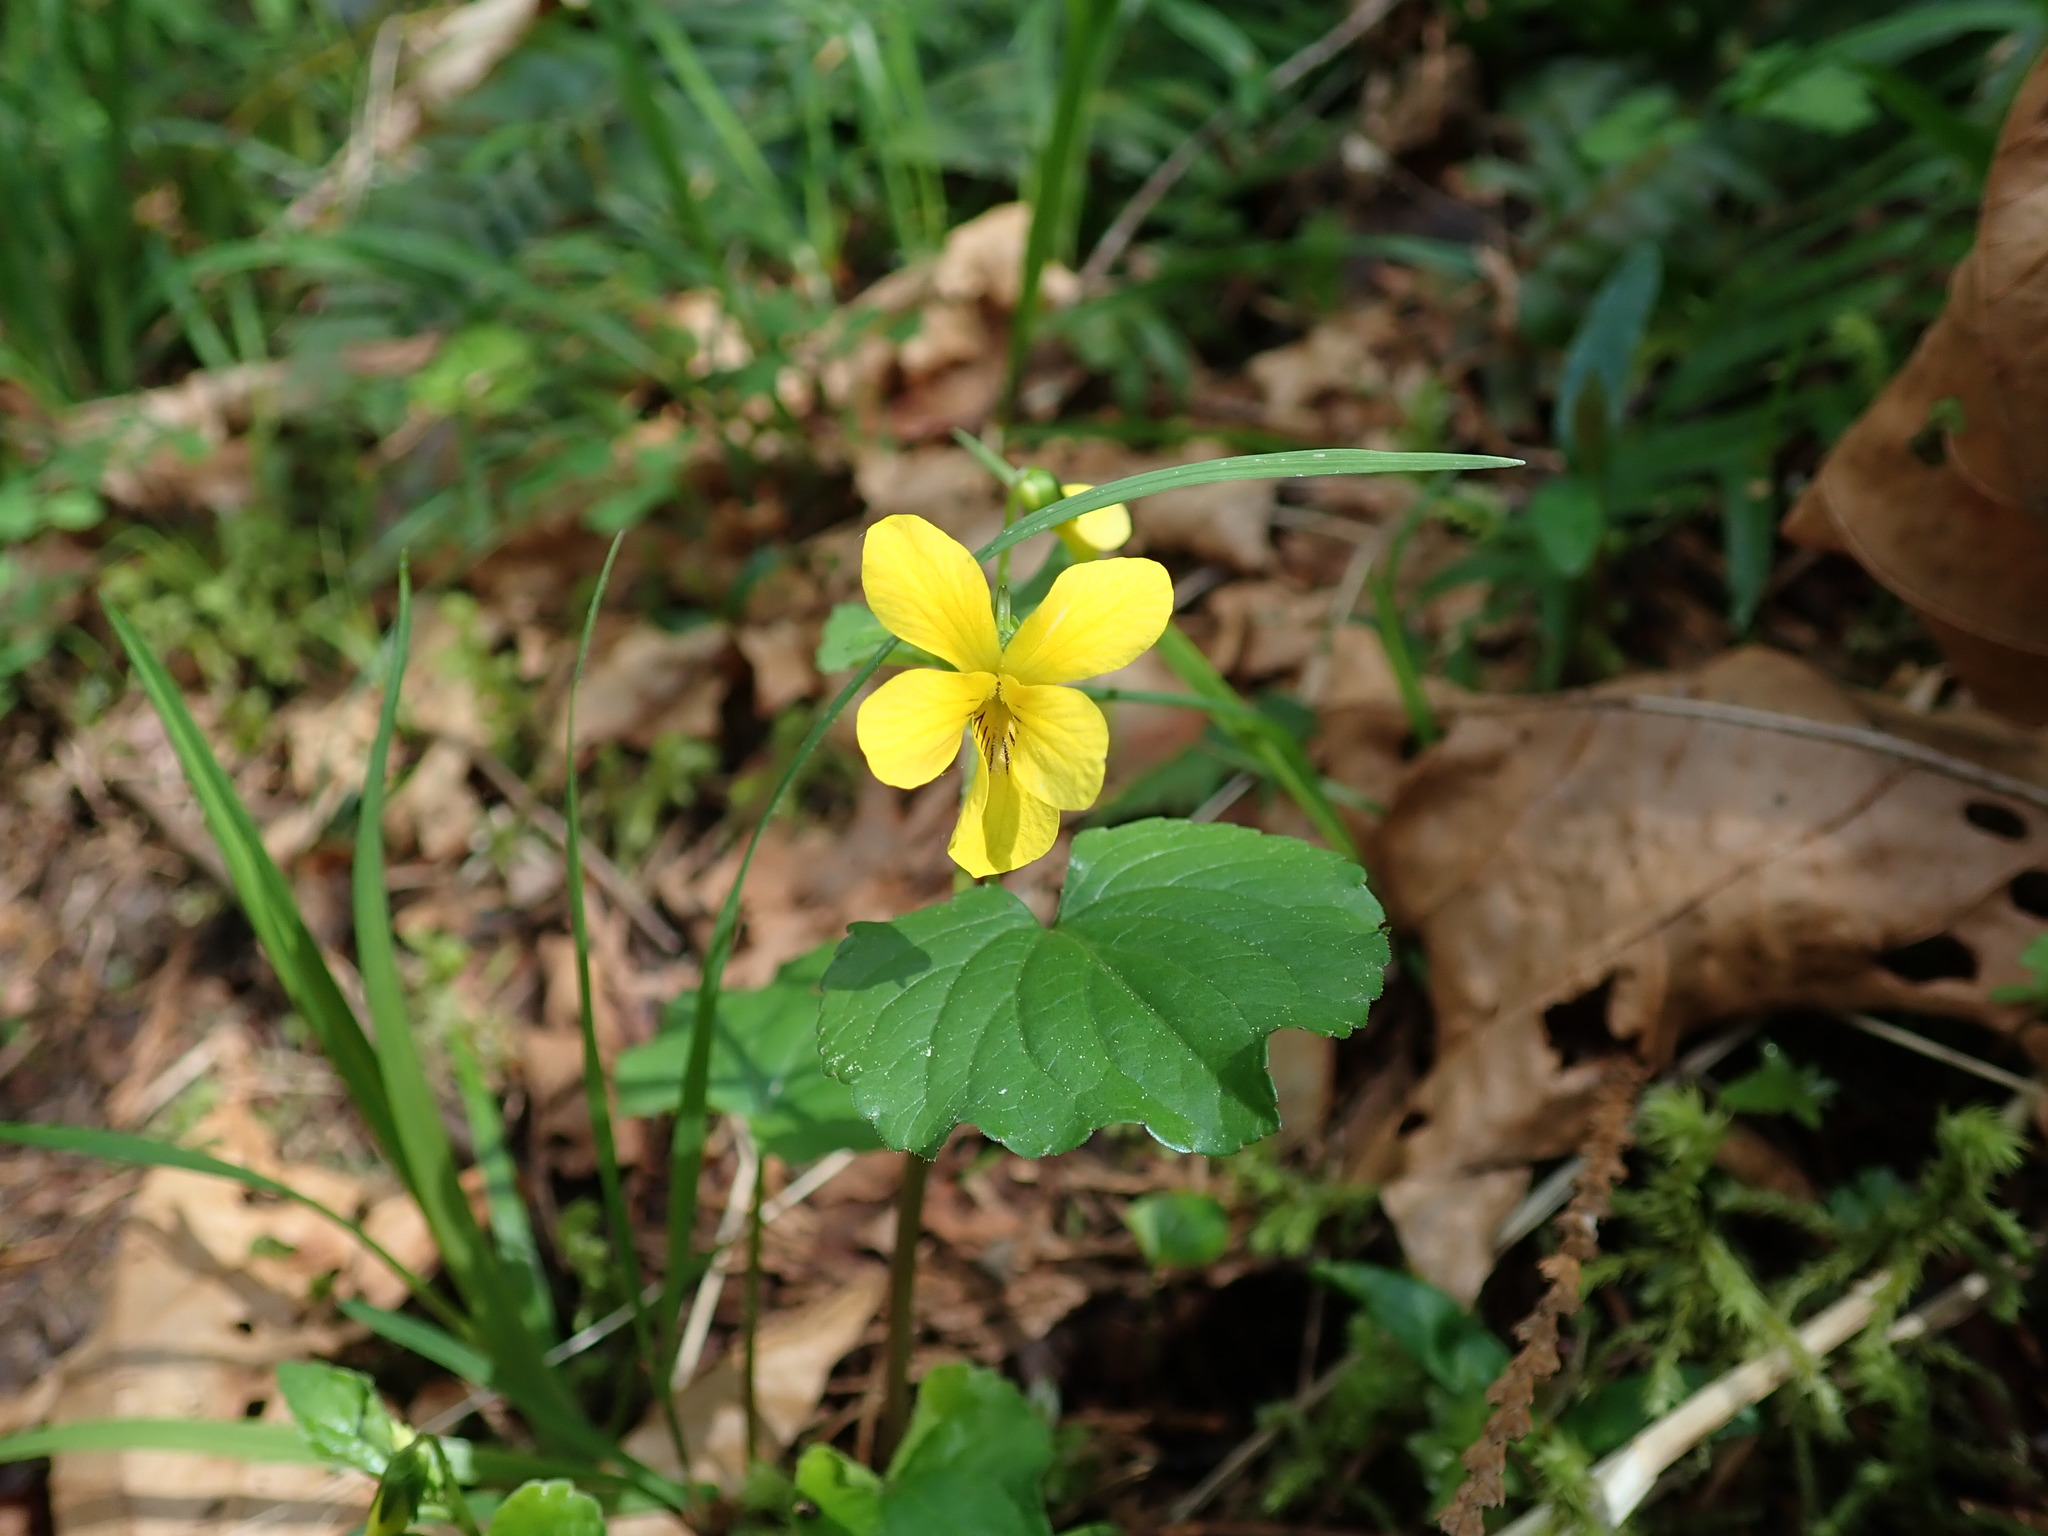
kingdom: Plantae
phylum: Tracheophyta
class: Magnoliopsida
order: Malpighiales
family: Violaceae
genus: Viola
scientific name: Viola glabella
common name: Stream violet
